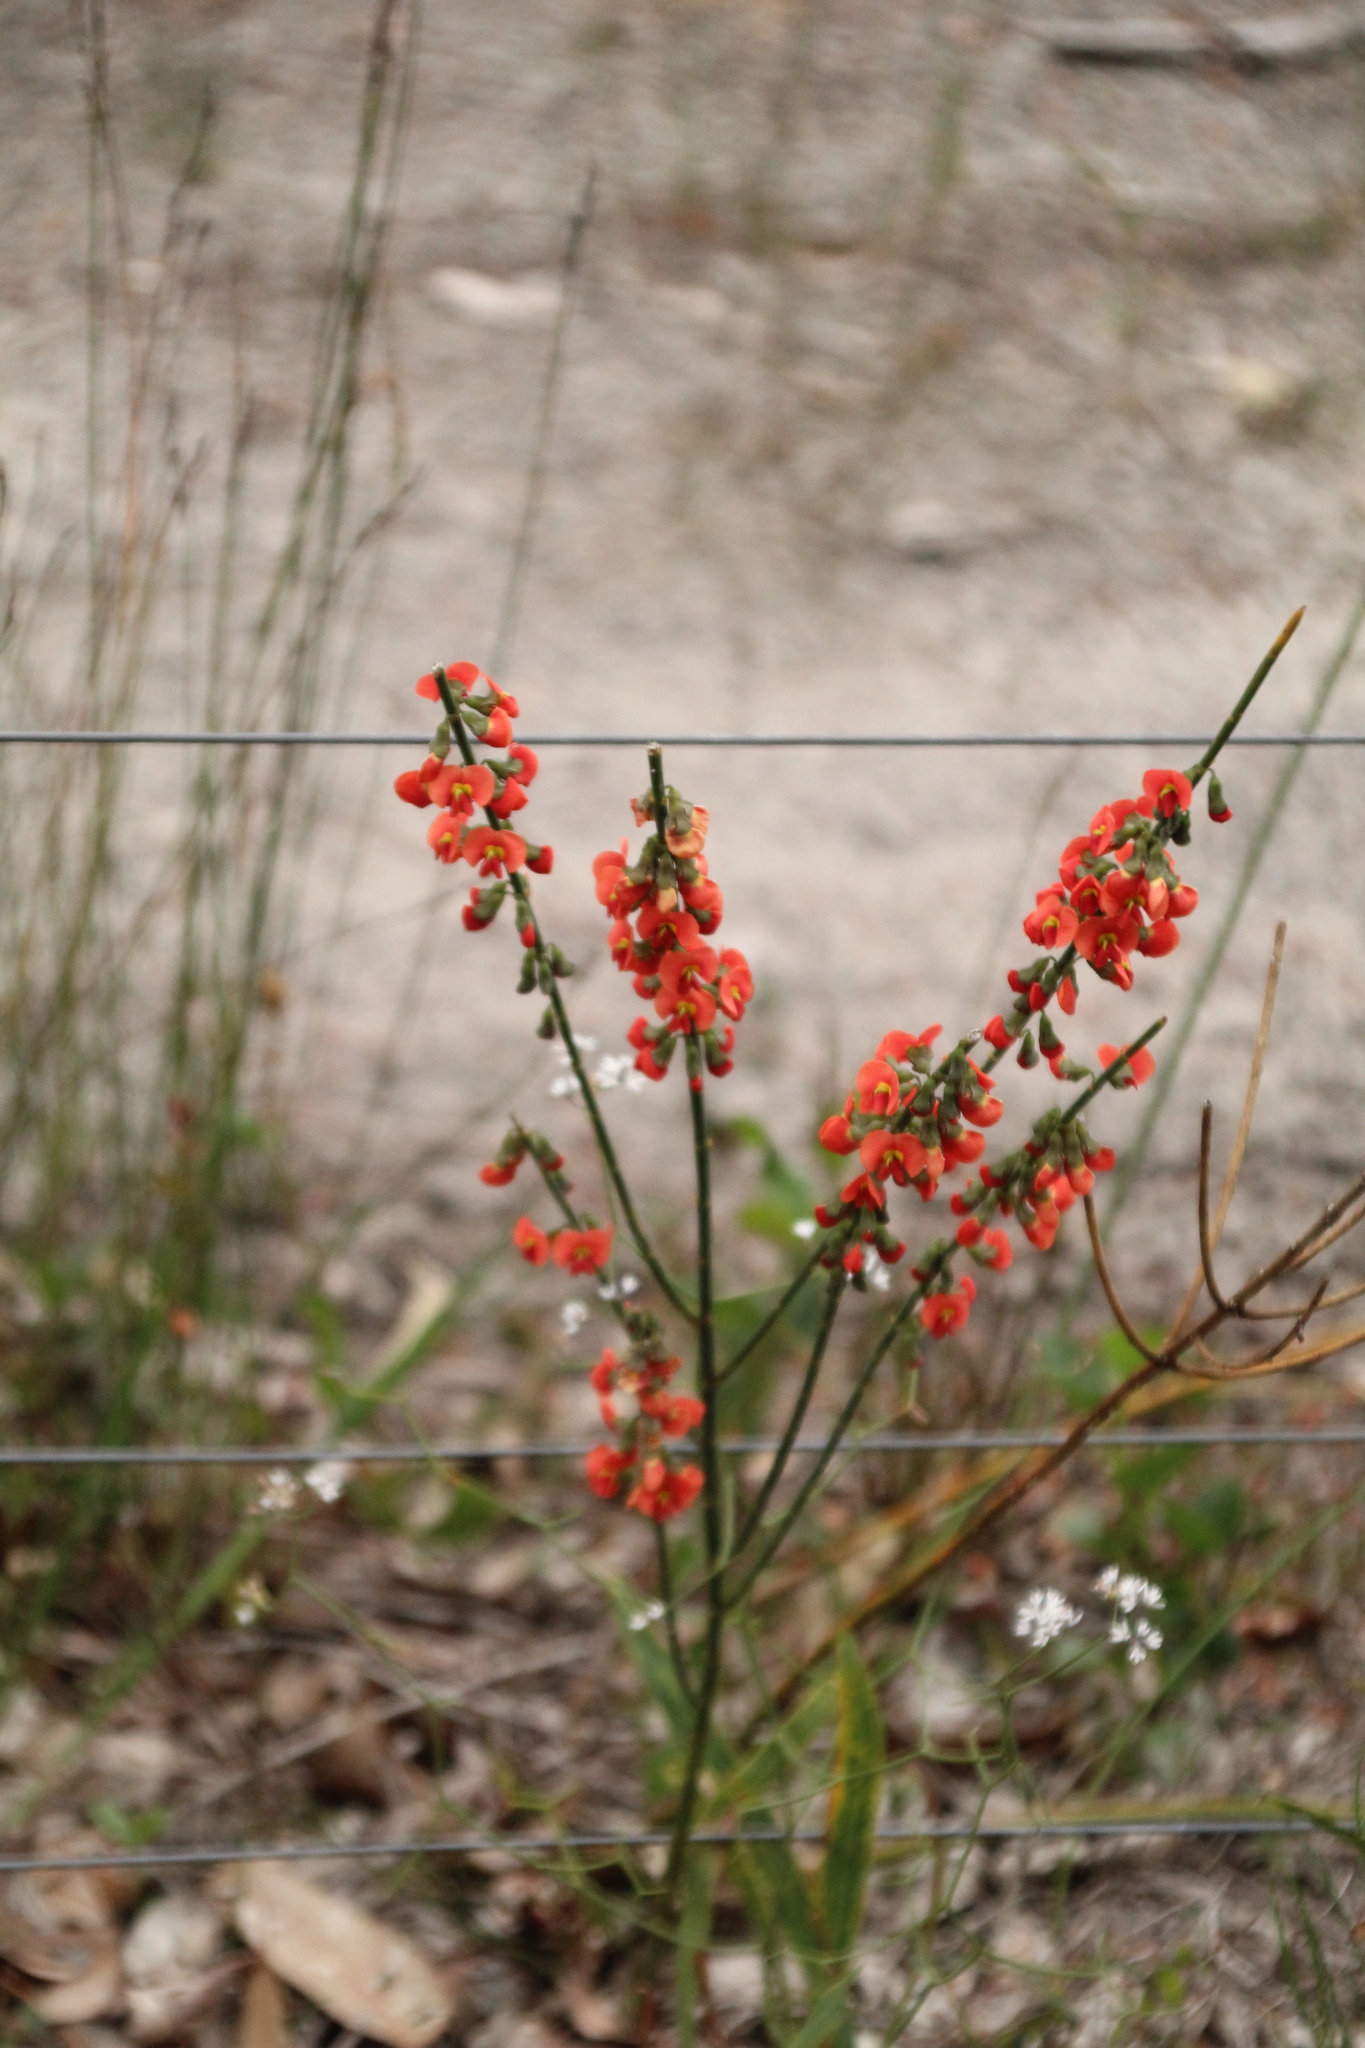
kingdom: Plantae
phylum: Tracheophyta
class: Magnoliopsida
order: Fabales
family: Fabaceae
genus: Sphaerolobium
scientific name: Sphaerolobium grandiflorum
